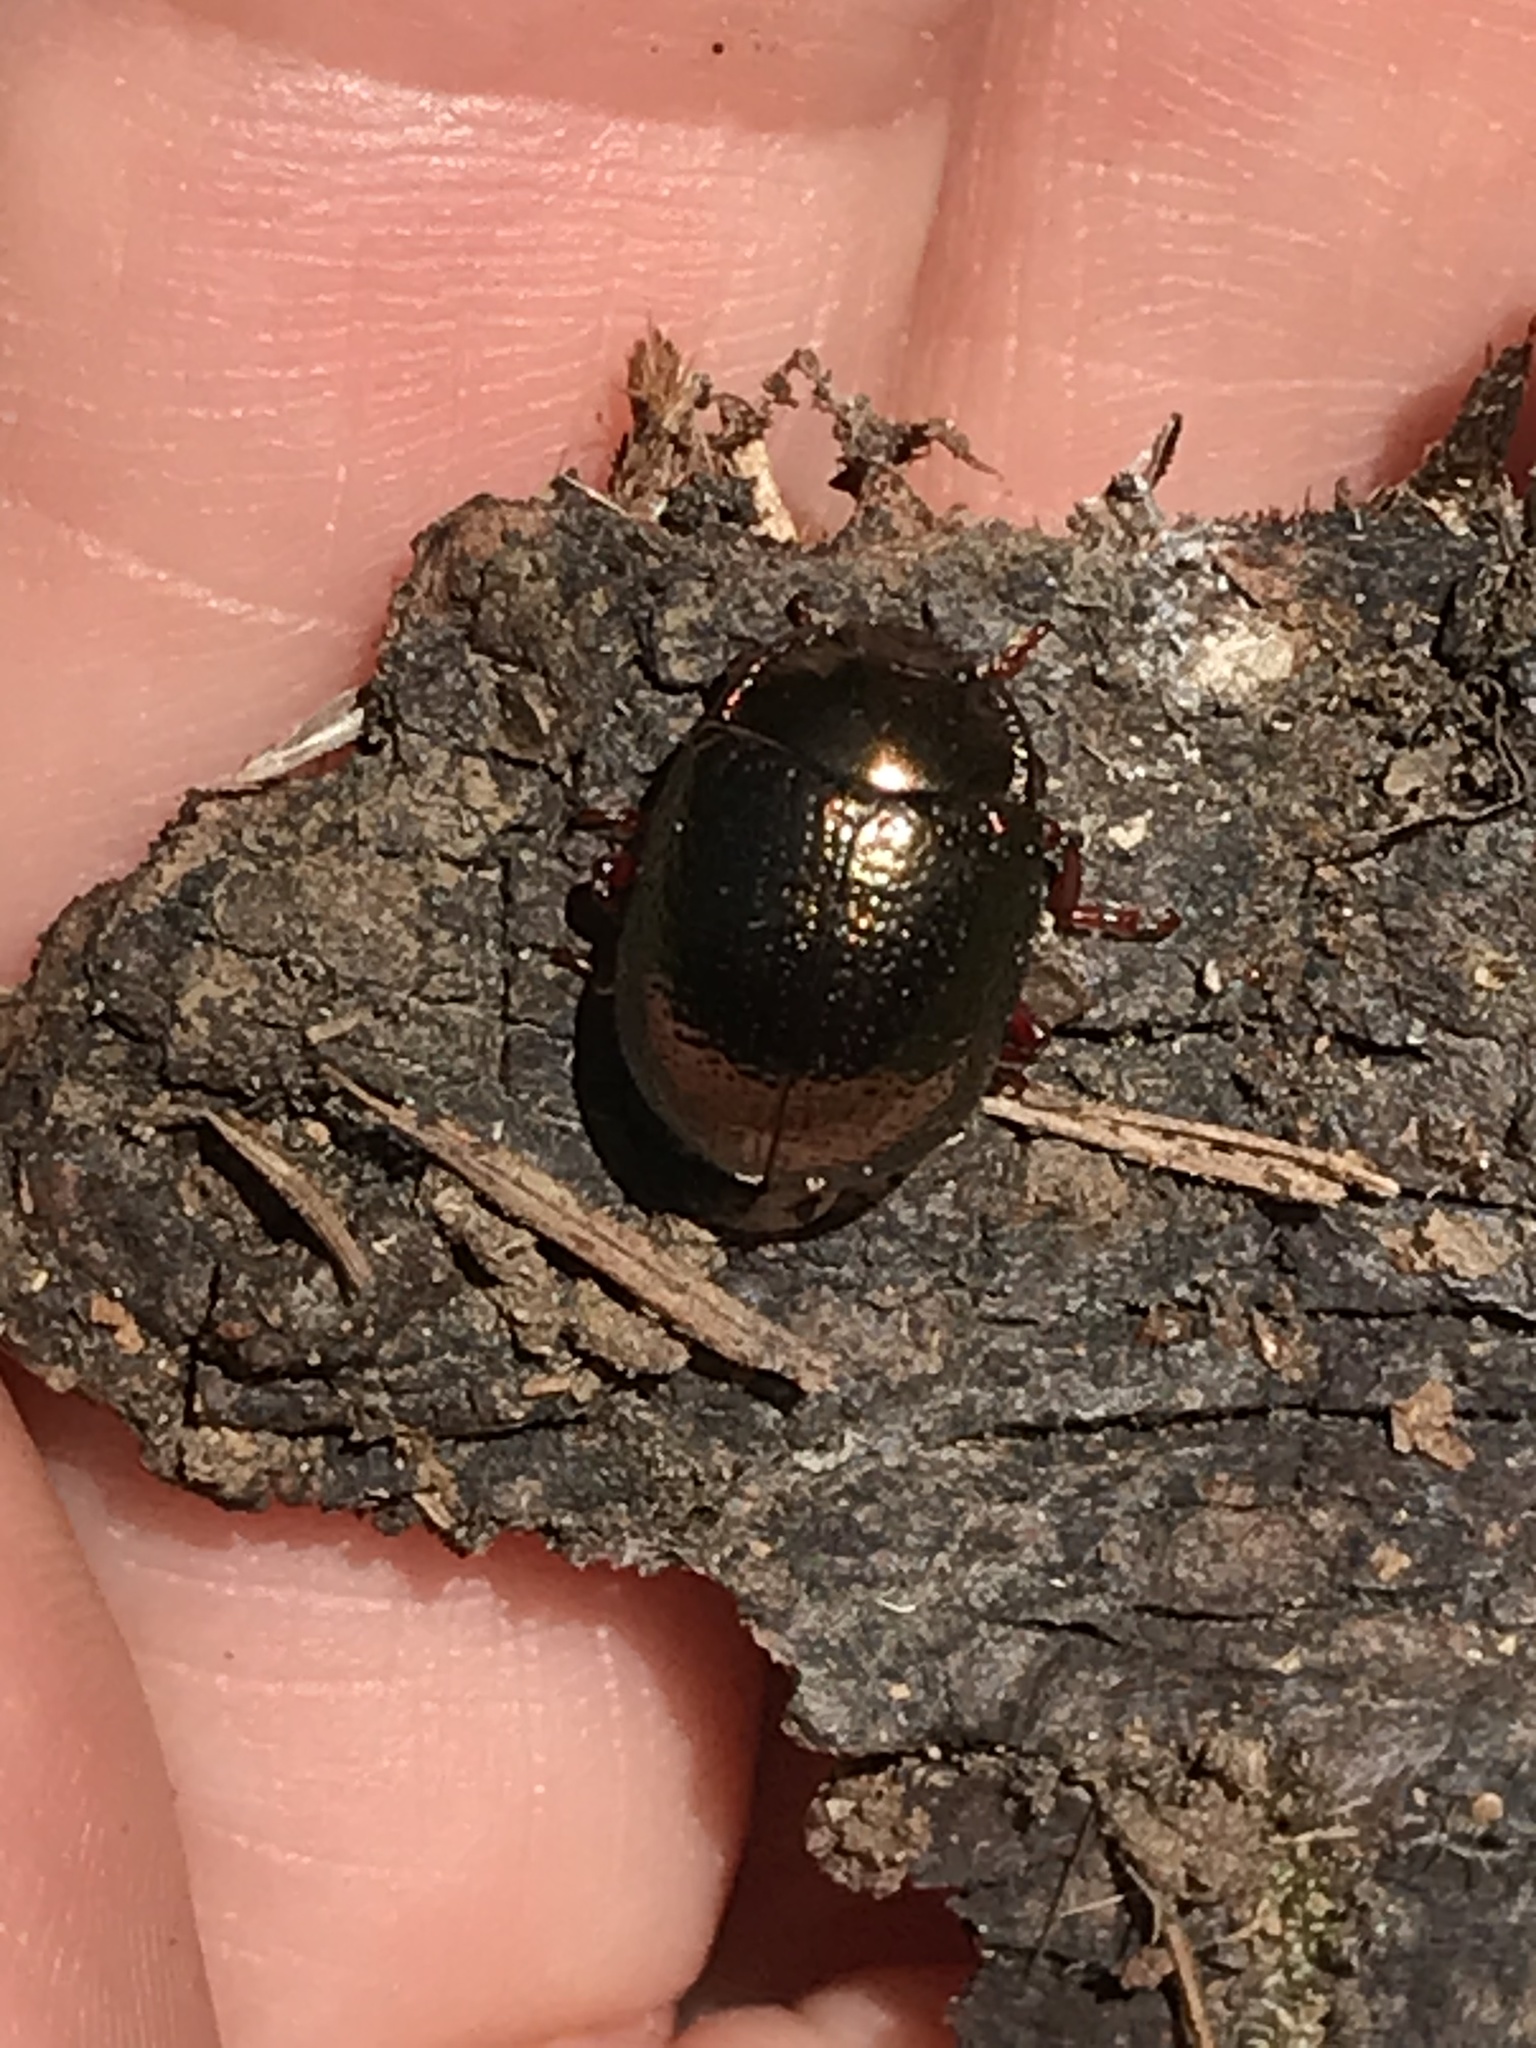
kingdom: Animalia
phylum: Arthropoda
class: Insecta
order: Coleoptera
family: Chrysomelidae
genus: Chrysolina
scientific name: Chrysolina bankii
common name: Leaf beetle
